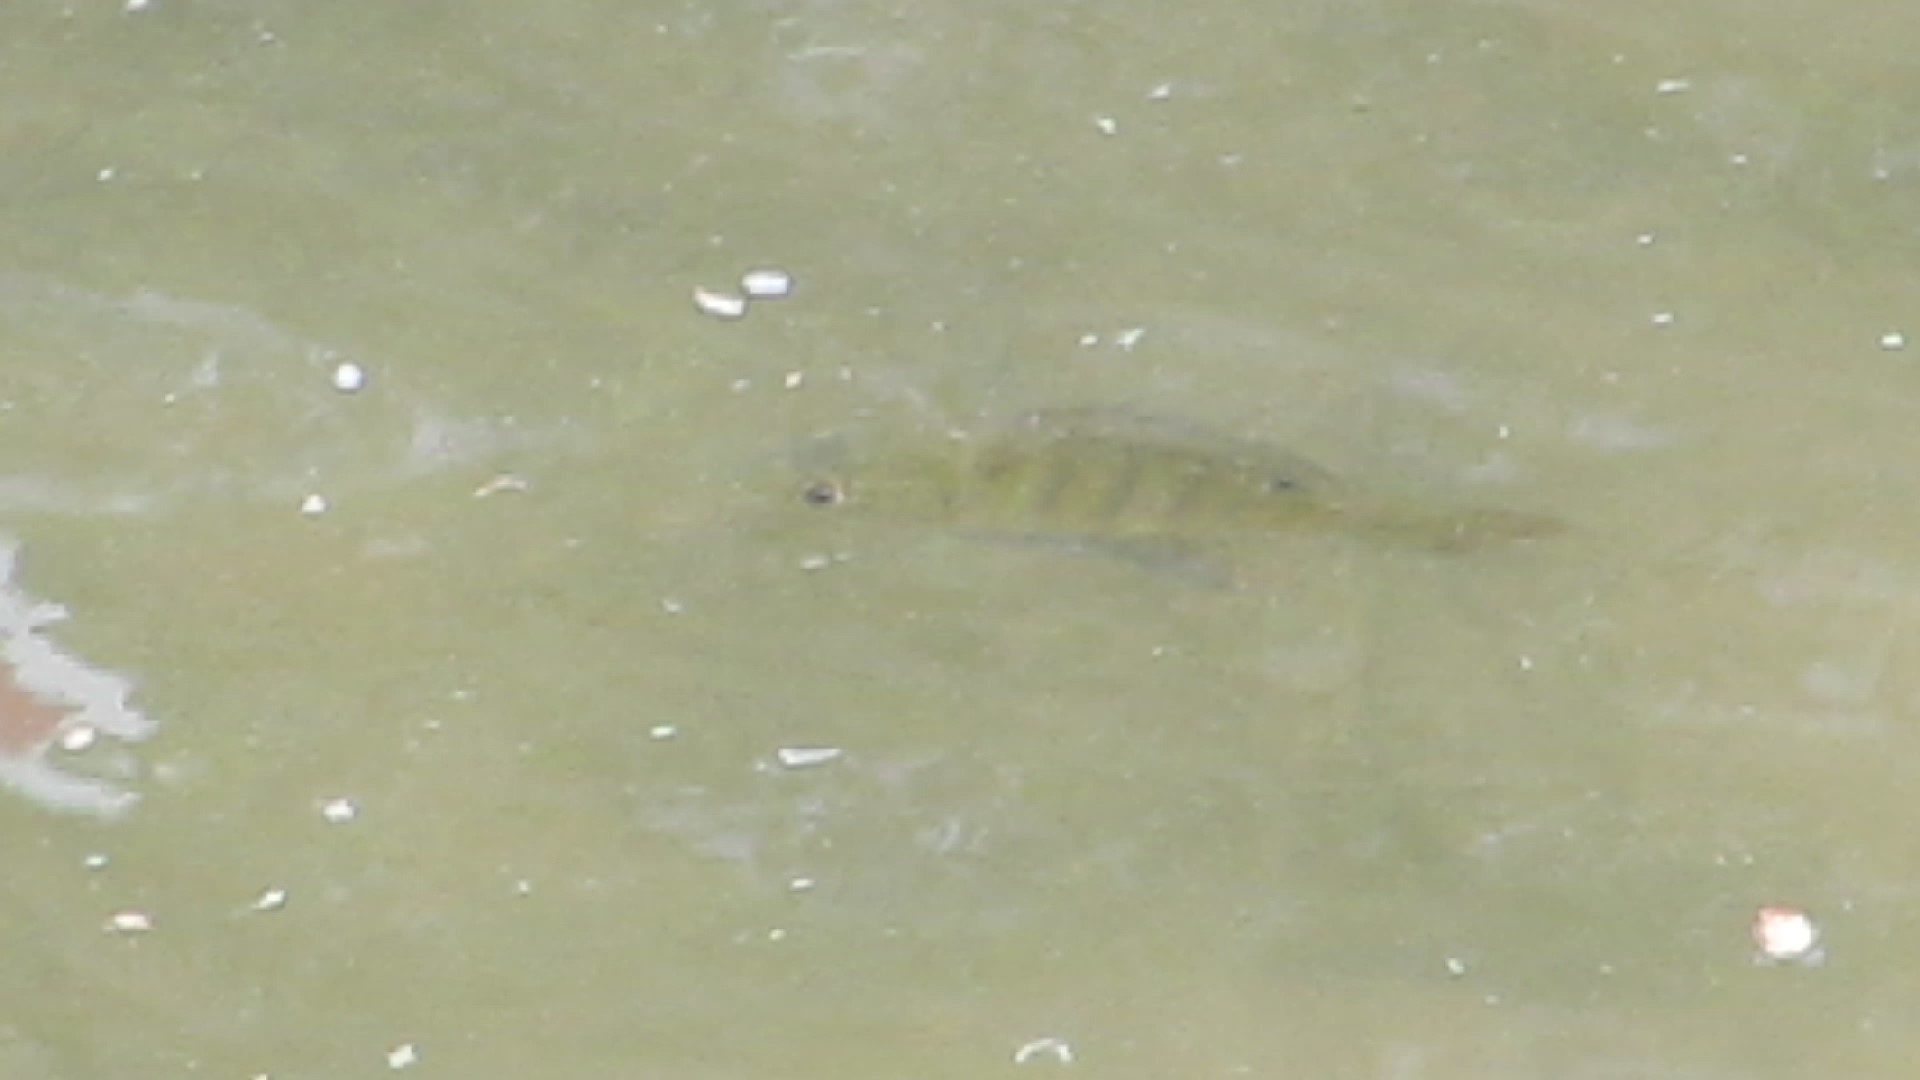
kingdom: Animalia
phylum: Chordata
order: Perciformes
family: Centrarchidae
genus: Lepomis
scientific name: Lepomis macrochirus
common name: Bluegill
